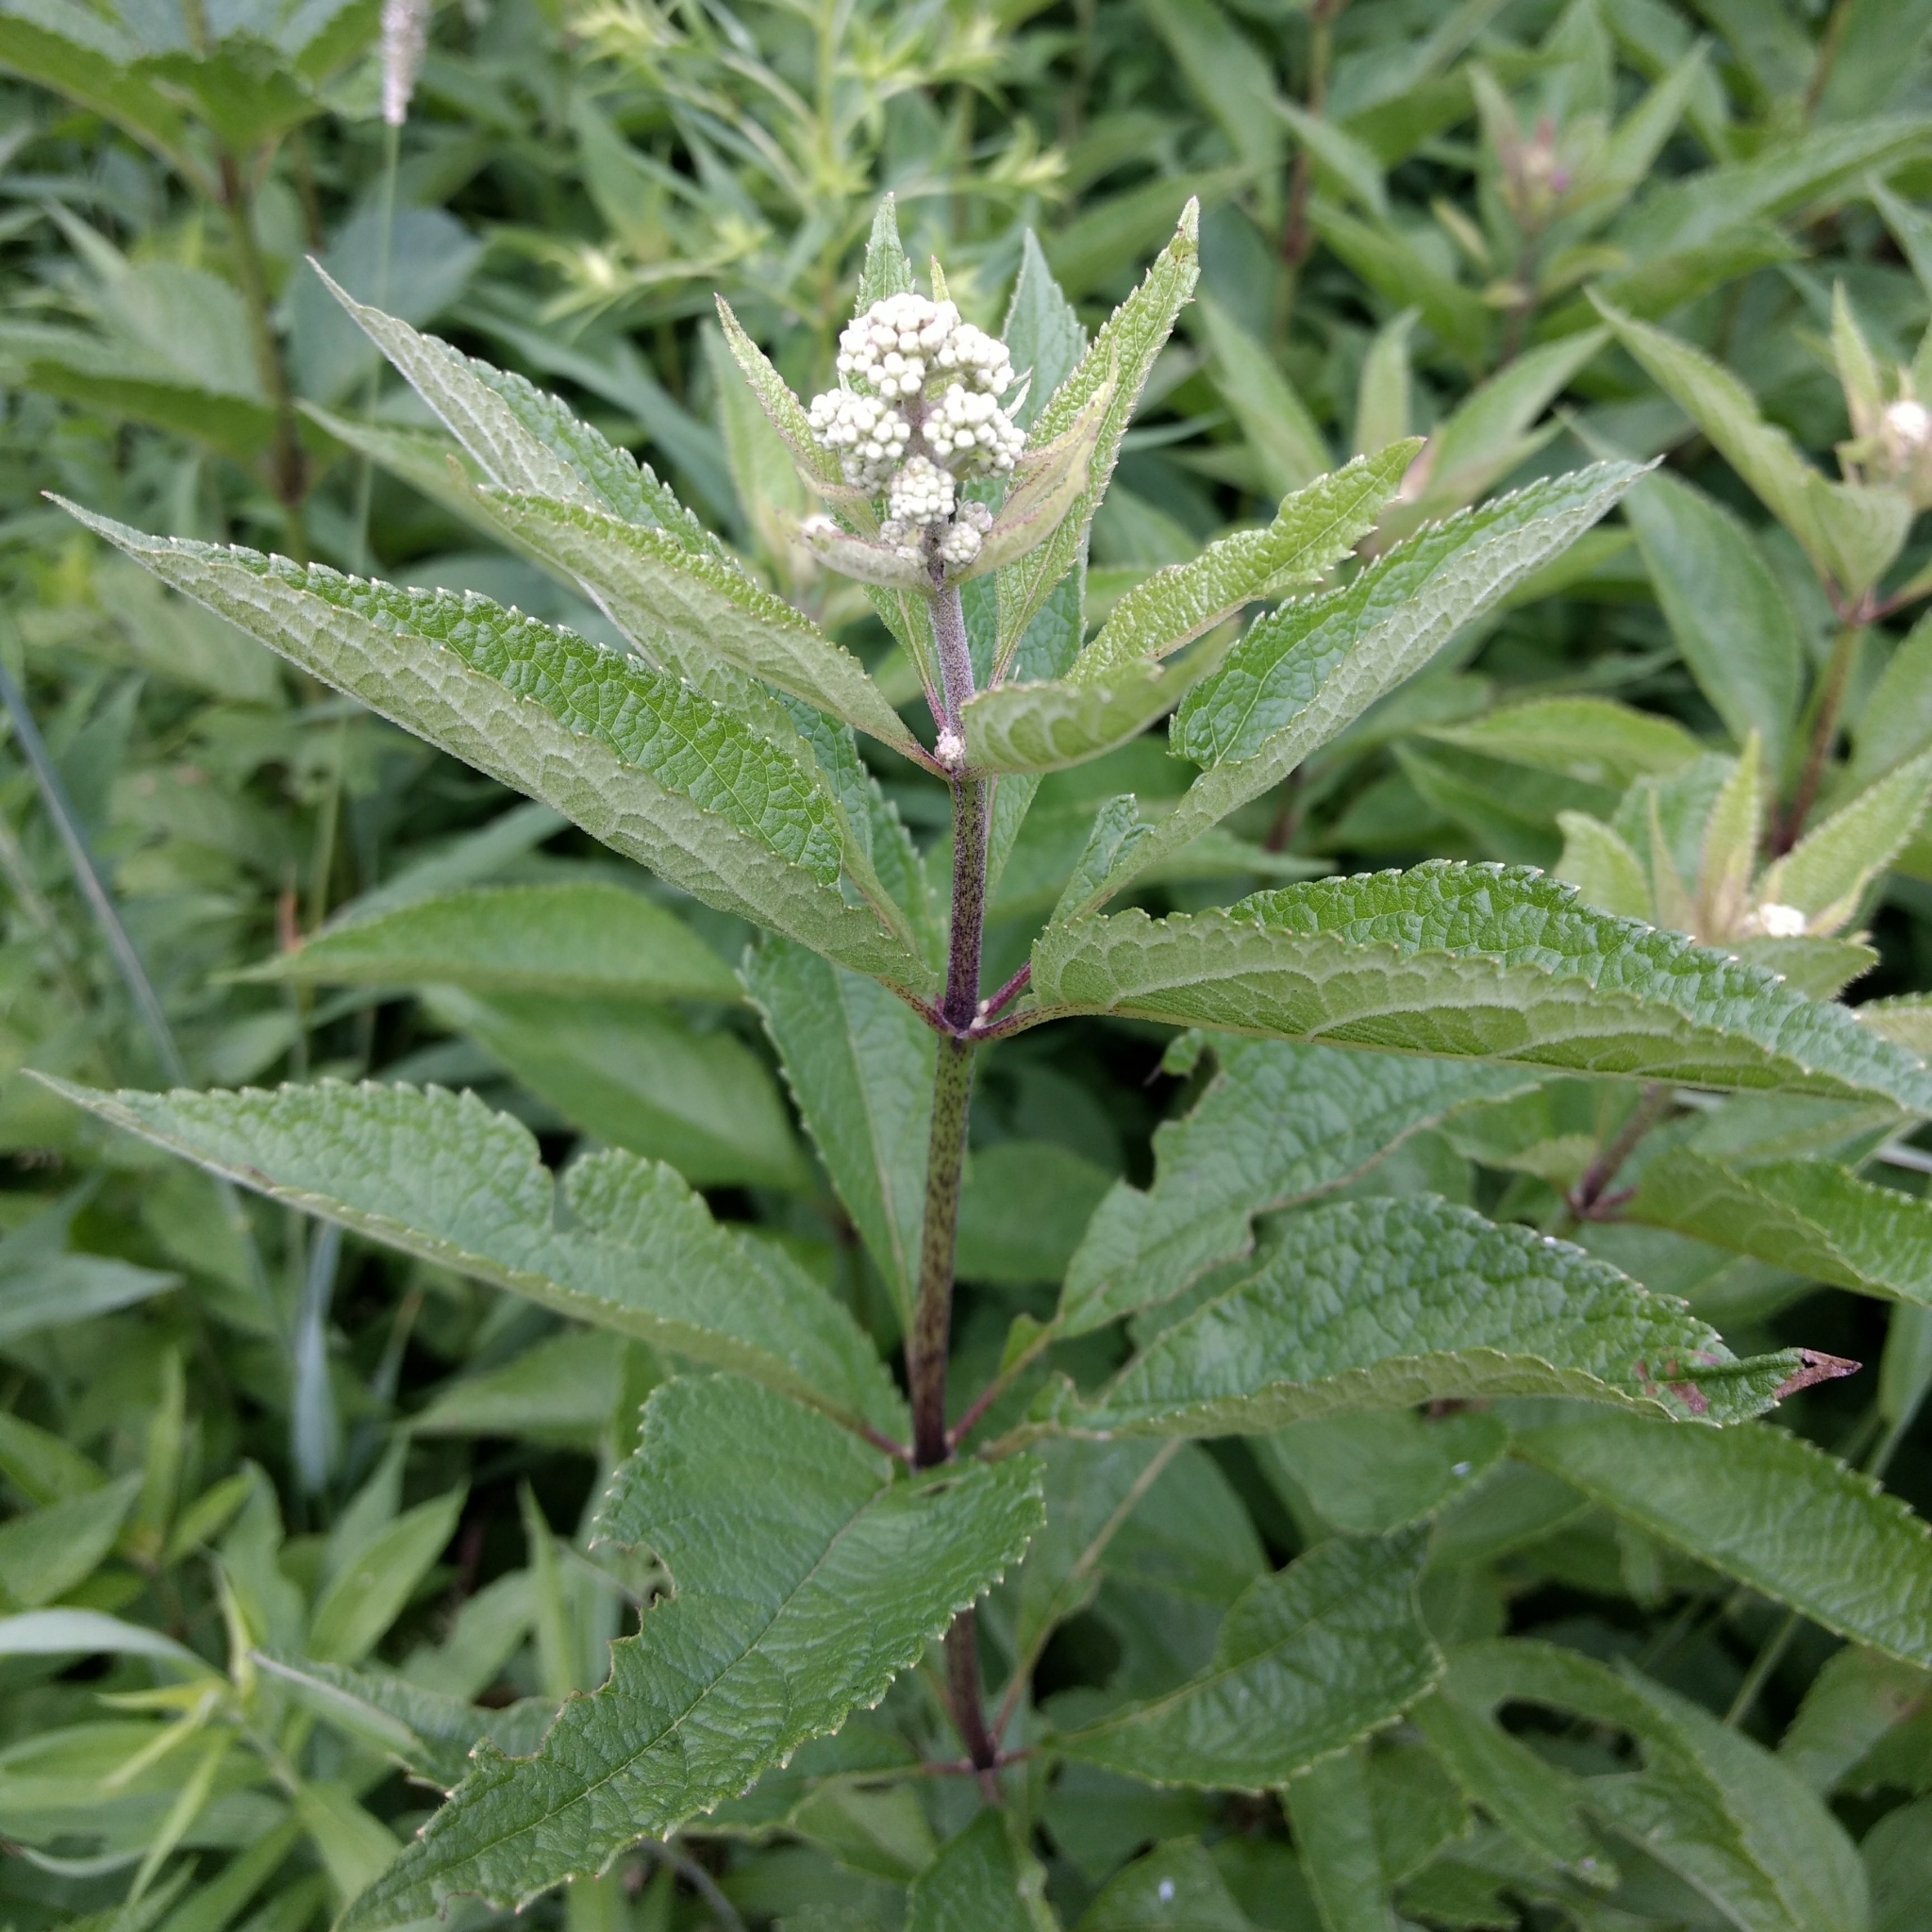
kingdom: Plantae
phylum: Tracheophyta
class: Magnoliopsida
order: Asterales
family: Asteraceae
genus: Eutrochium
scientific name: Eutrochium maculatum
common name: Spotted joe pye weed
